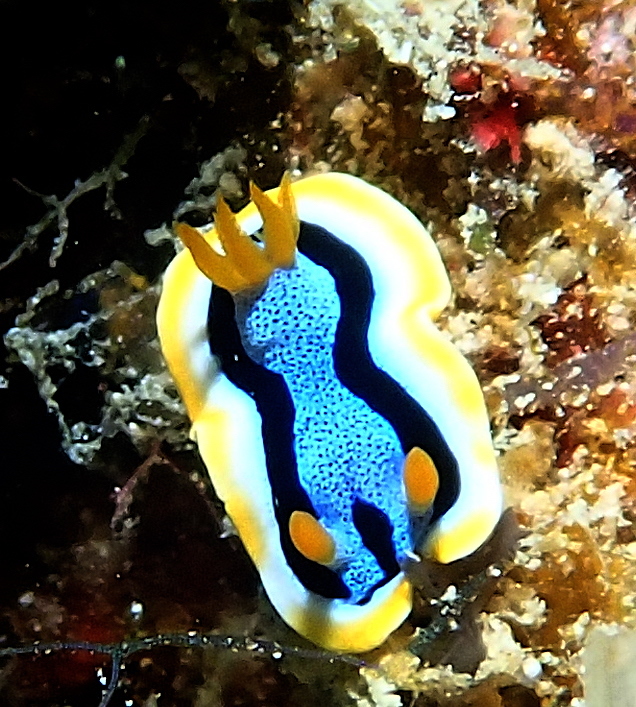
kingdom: Animalia
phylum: Mollusca
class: Gastropoda
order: Nudibranchia
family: Chromodorididae
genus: Chromodoris
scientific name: Chromodoris annae
